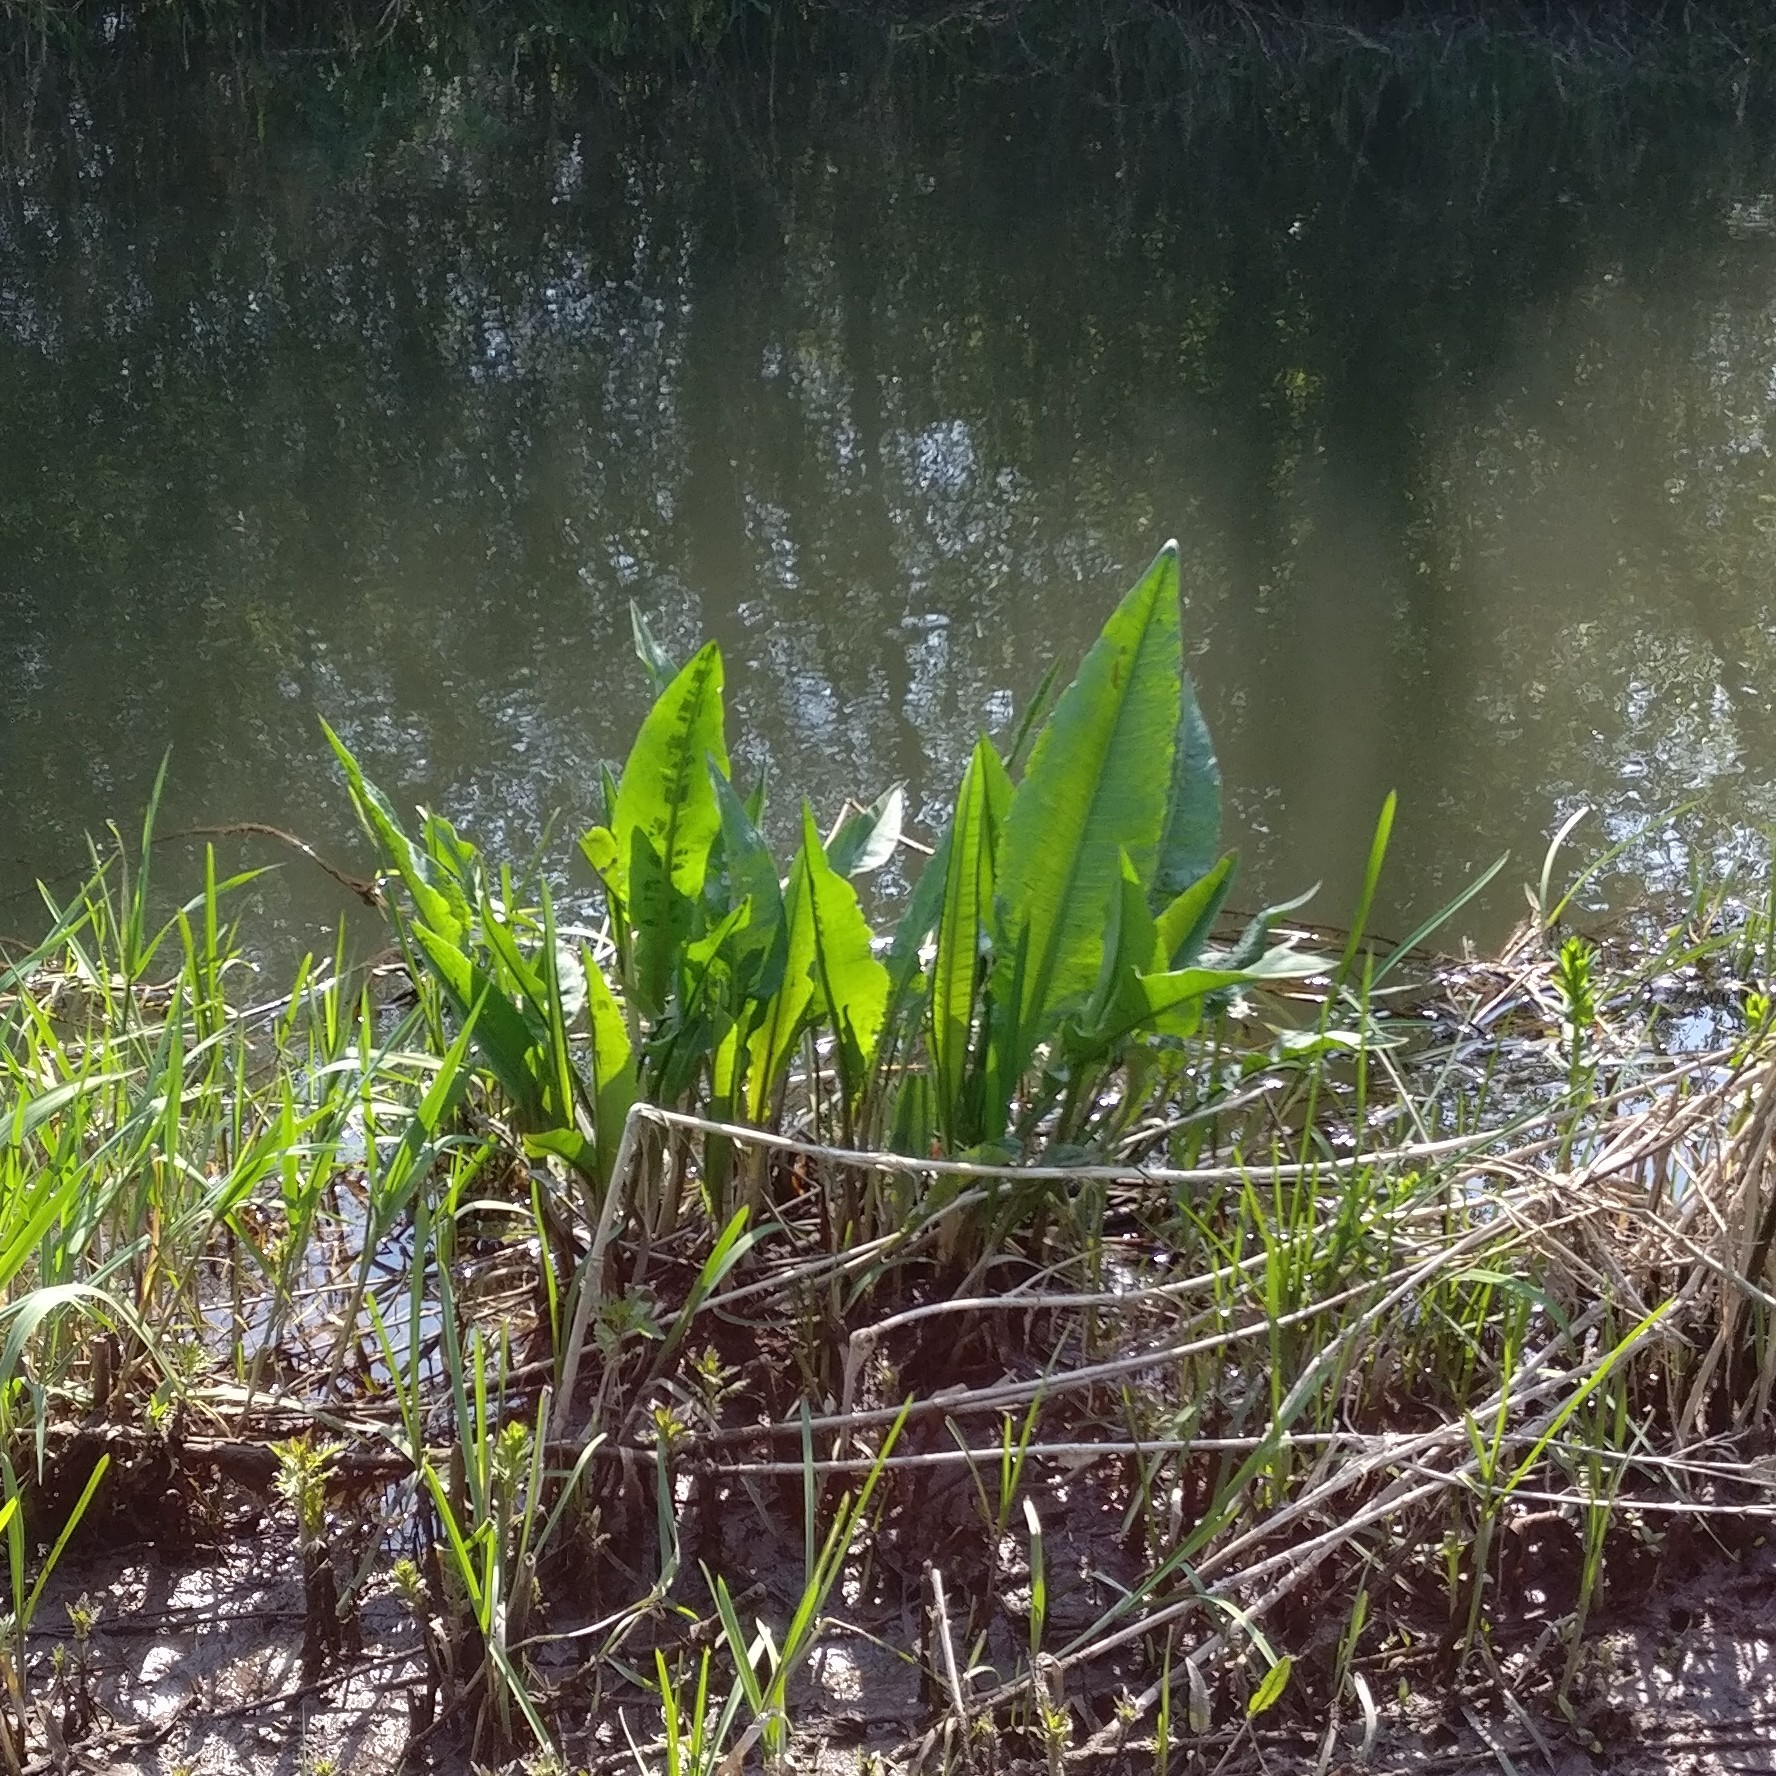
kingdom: Plantae
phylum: Tracheophyta
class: Magnoliopsida
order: Caryophyllales
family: Polygonaceae
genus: Rumex
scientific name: Rumex hydrolapathum
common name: Water dock
